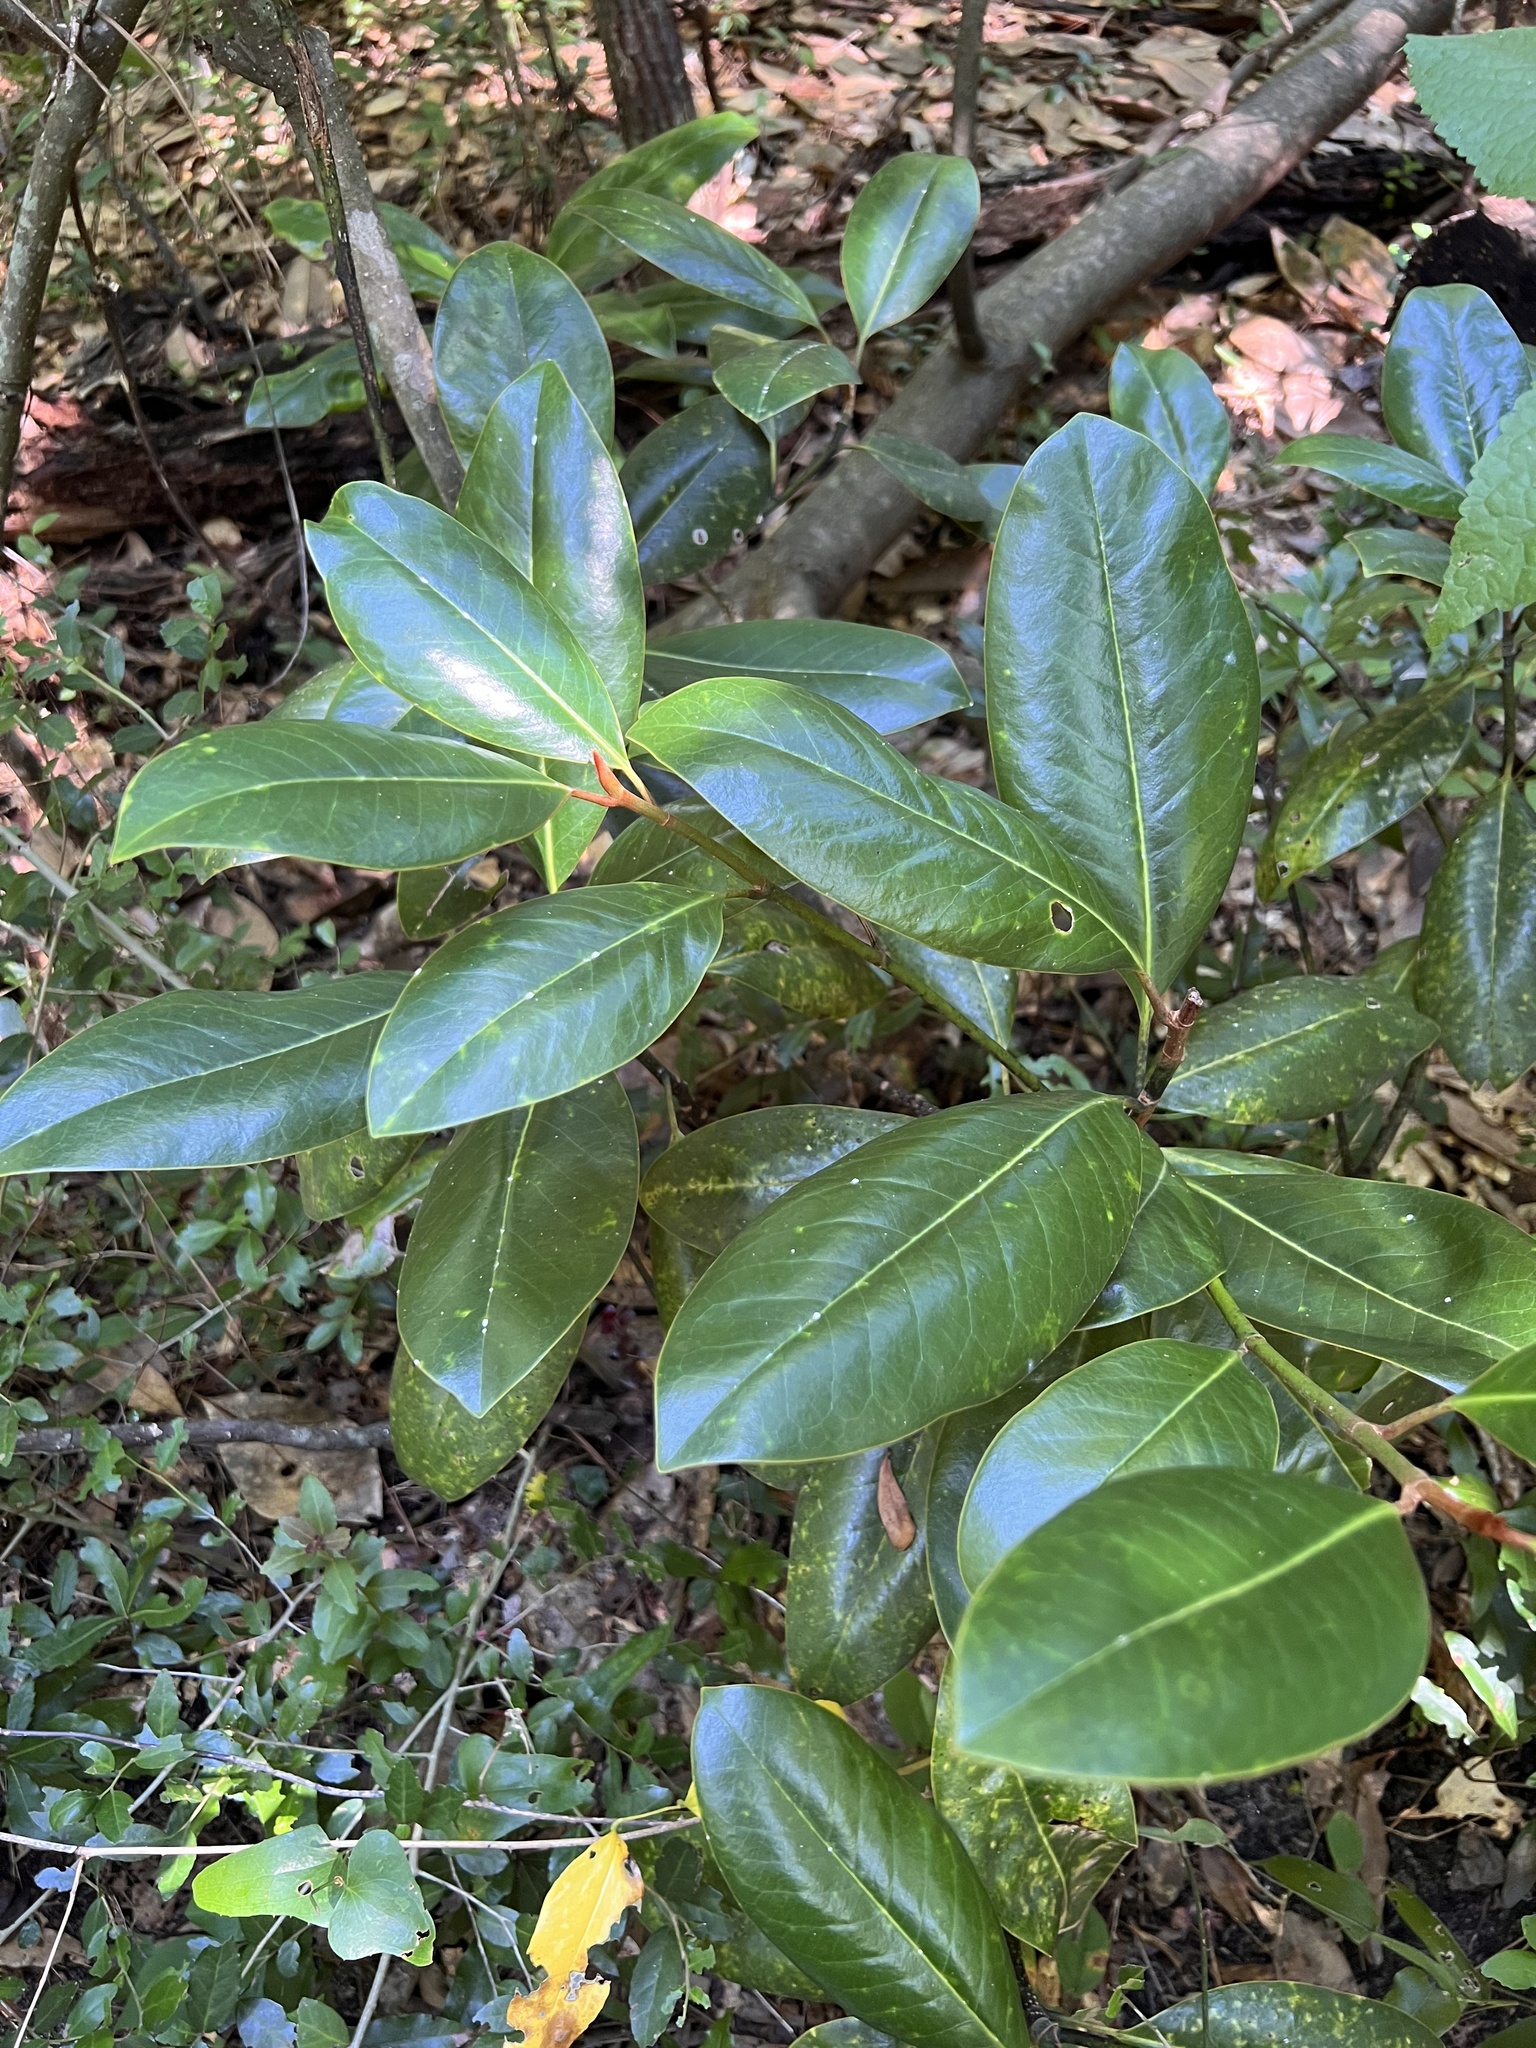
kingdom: Plantae
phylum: Tracheophyta
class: Magnoliopsida
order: Magnoliales
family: Magnoliaceae
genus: Magnolia
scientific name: Magnolia grandiflora
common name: Southern magnolia
